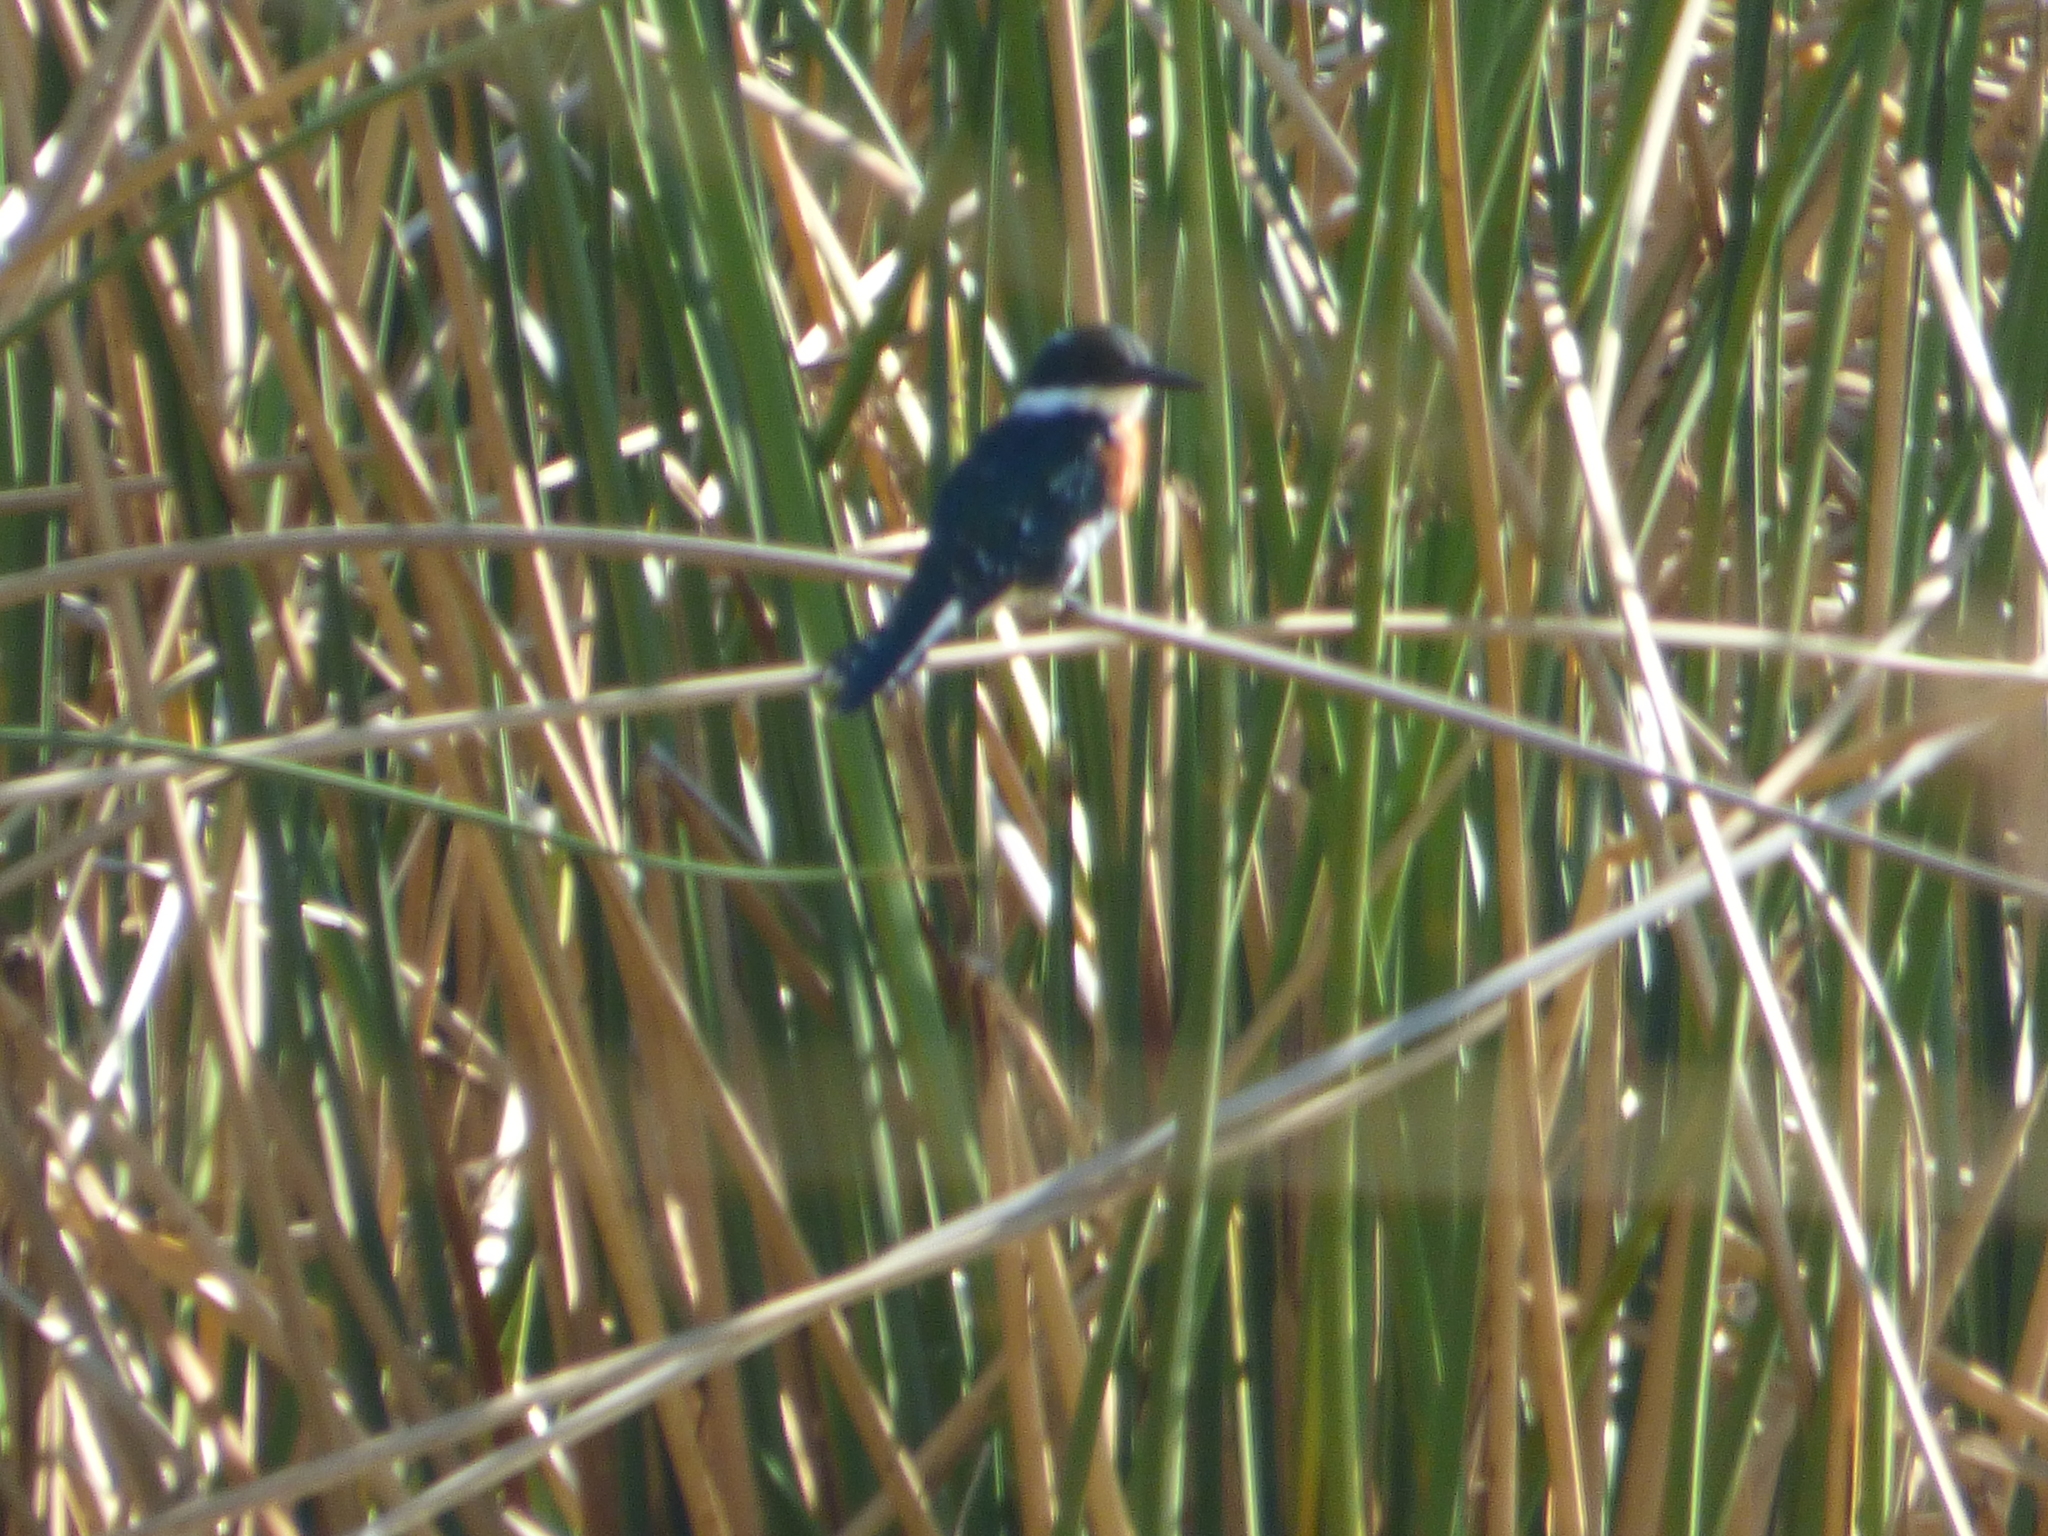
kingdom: Animalia
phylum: Chordata
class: Aves
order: Coraciiformes
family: Alcedinidae
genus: Chloroceryle
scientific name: Chloroceryle americana
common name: Green kingfisher
